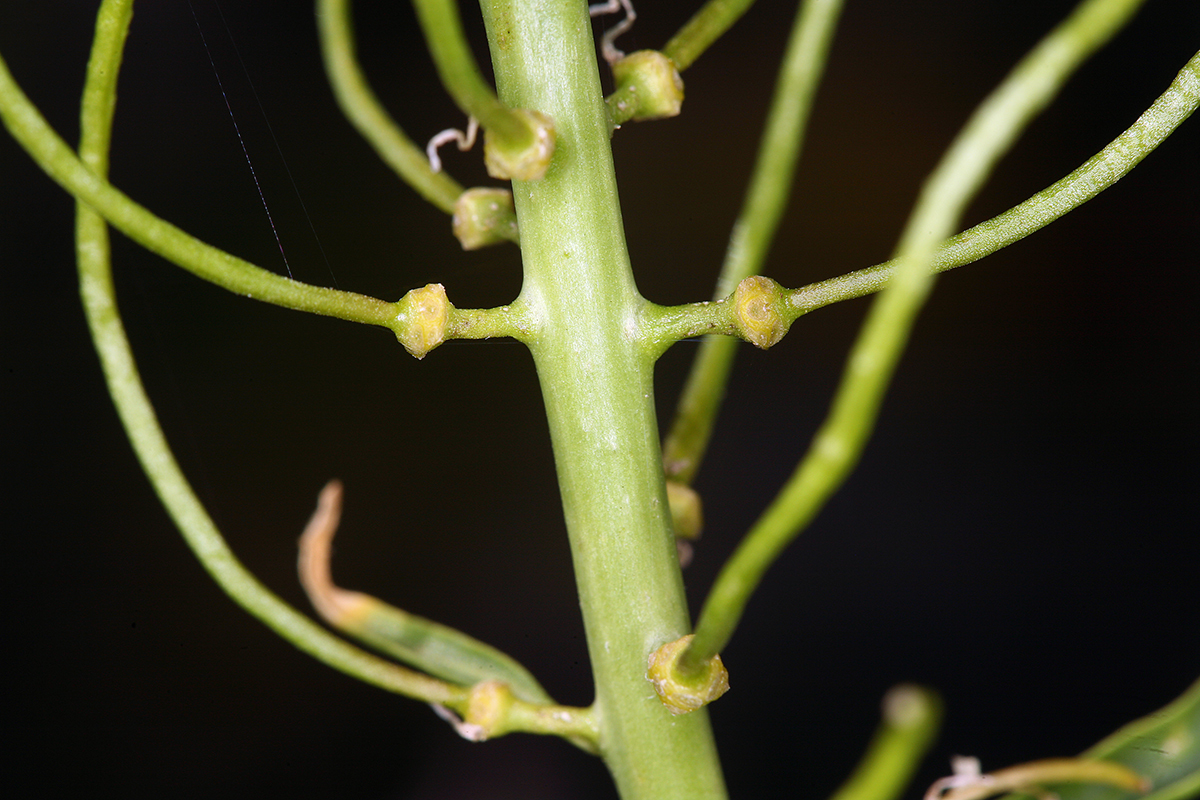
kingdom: Plantae
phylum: Tracheophyta
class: Magnoliopsida
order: Brassicales
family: Brassicaceae
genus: Thelypodium
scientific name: Thelypodium laciniatum
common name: Cut-leaved thelypody
